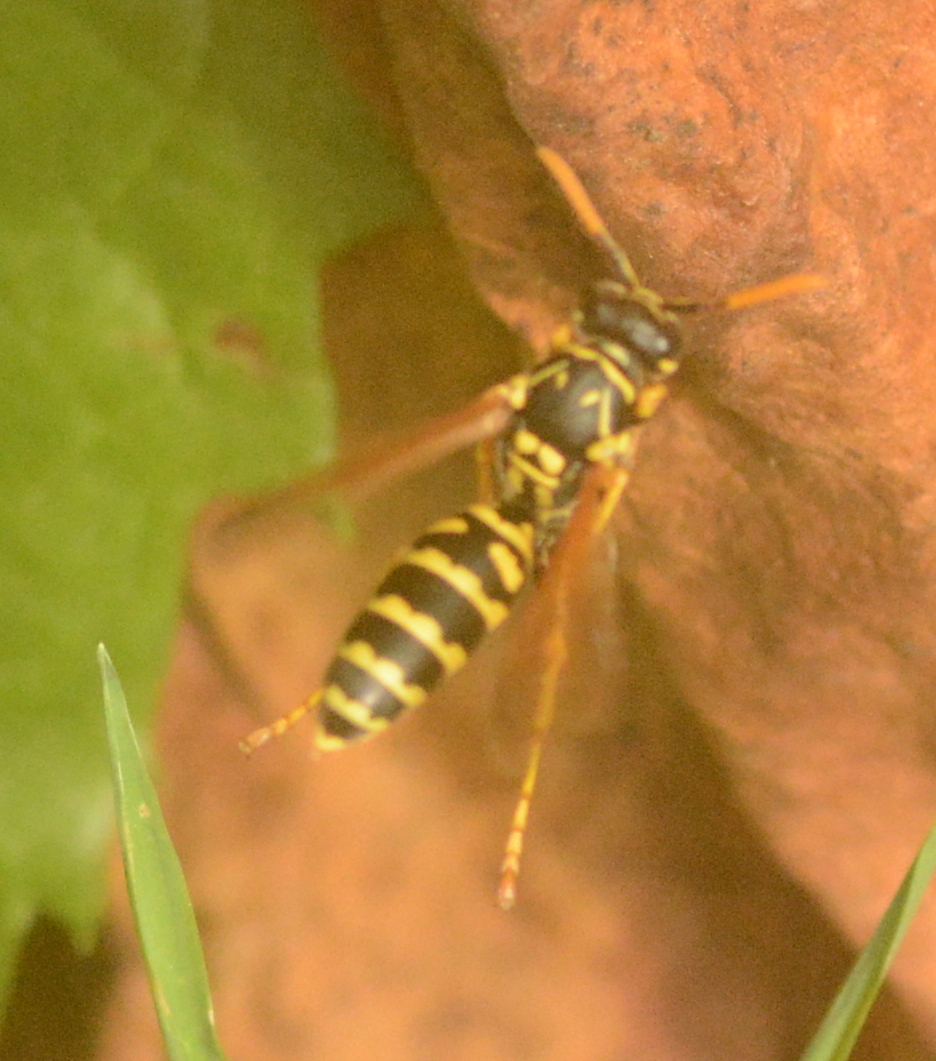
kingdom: Animalia
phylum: Arthropoda
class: Insecta
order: Hymenoptera
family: Eumenidae
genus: Polistes
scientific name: Polistes dominula
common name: Paper wasp
